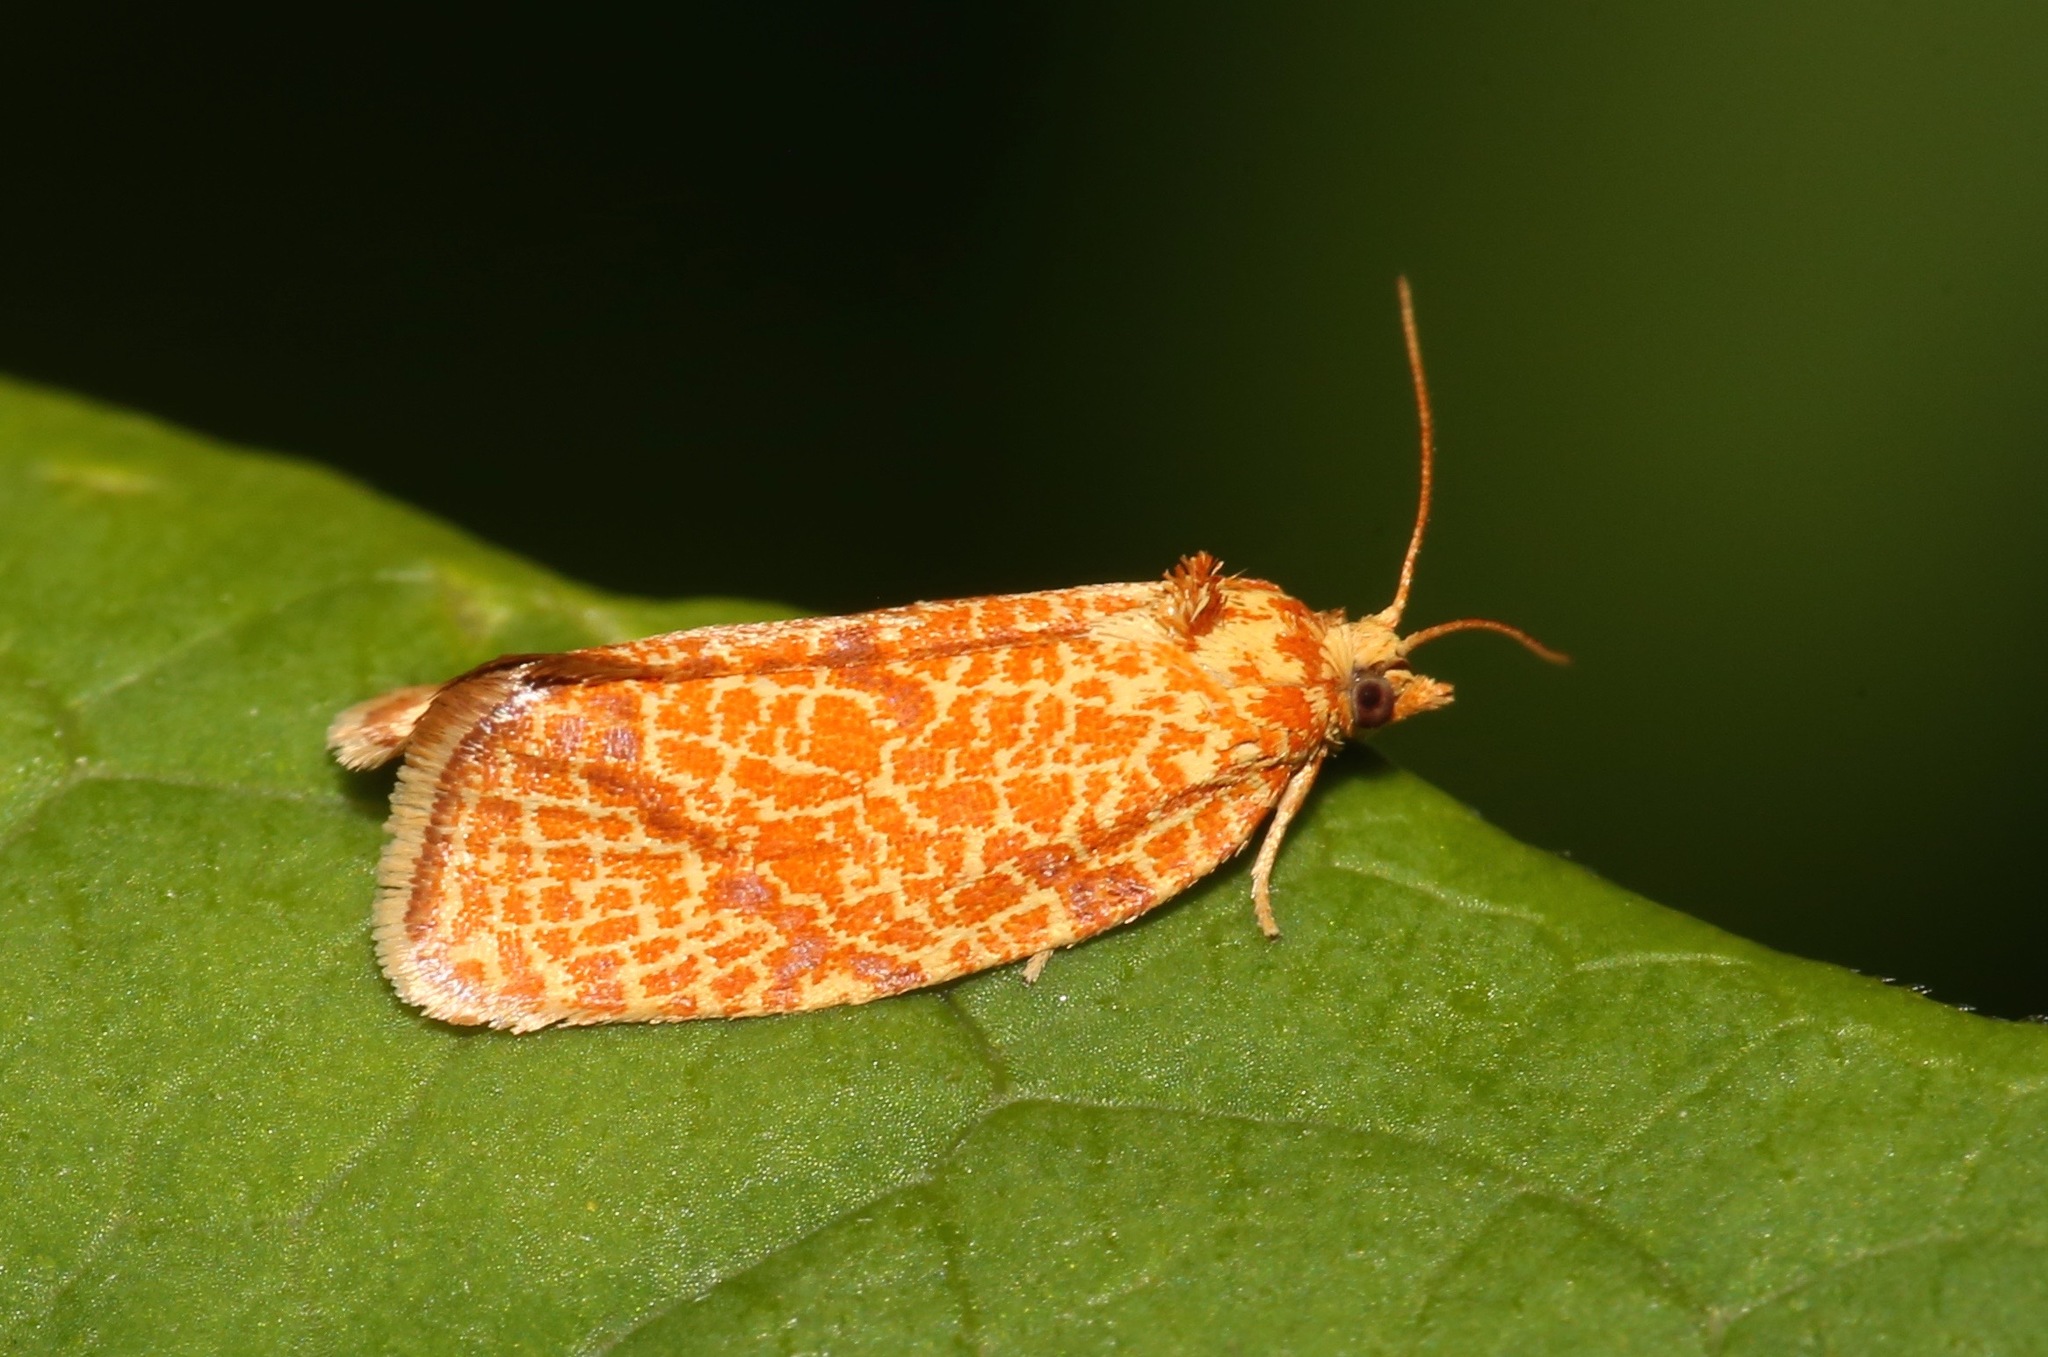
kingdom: Animalia
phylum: Arthropoda
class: Insecta
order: Lepidoptera
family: Tortricidae
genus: Argyrotaenia
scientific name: Argyrotaenia quadrifasciana
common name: Four-lined leafroller moth
